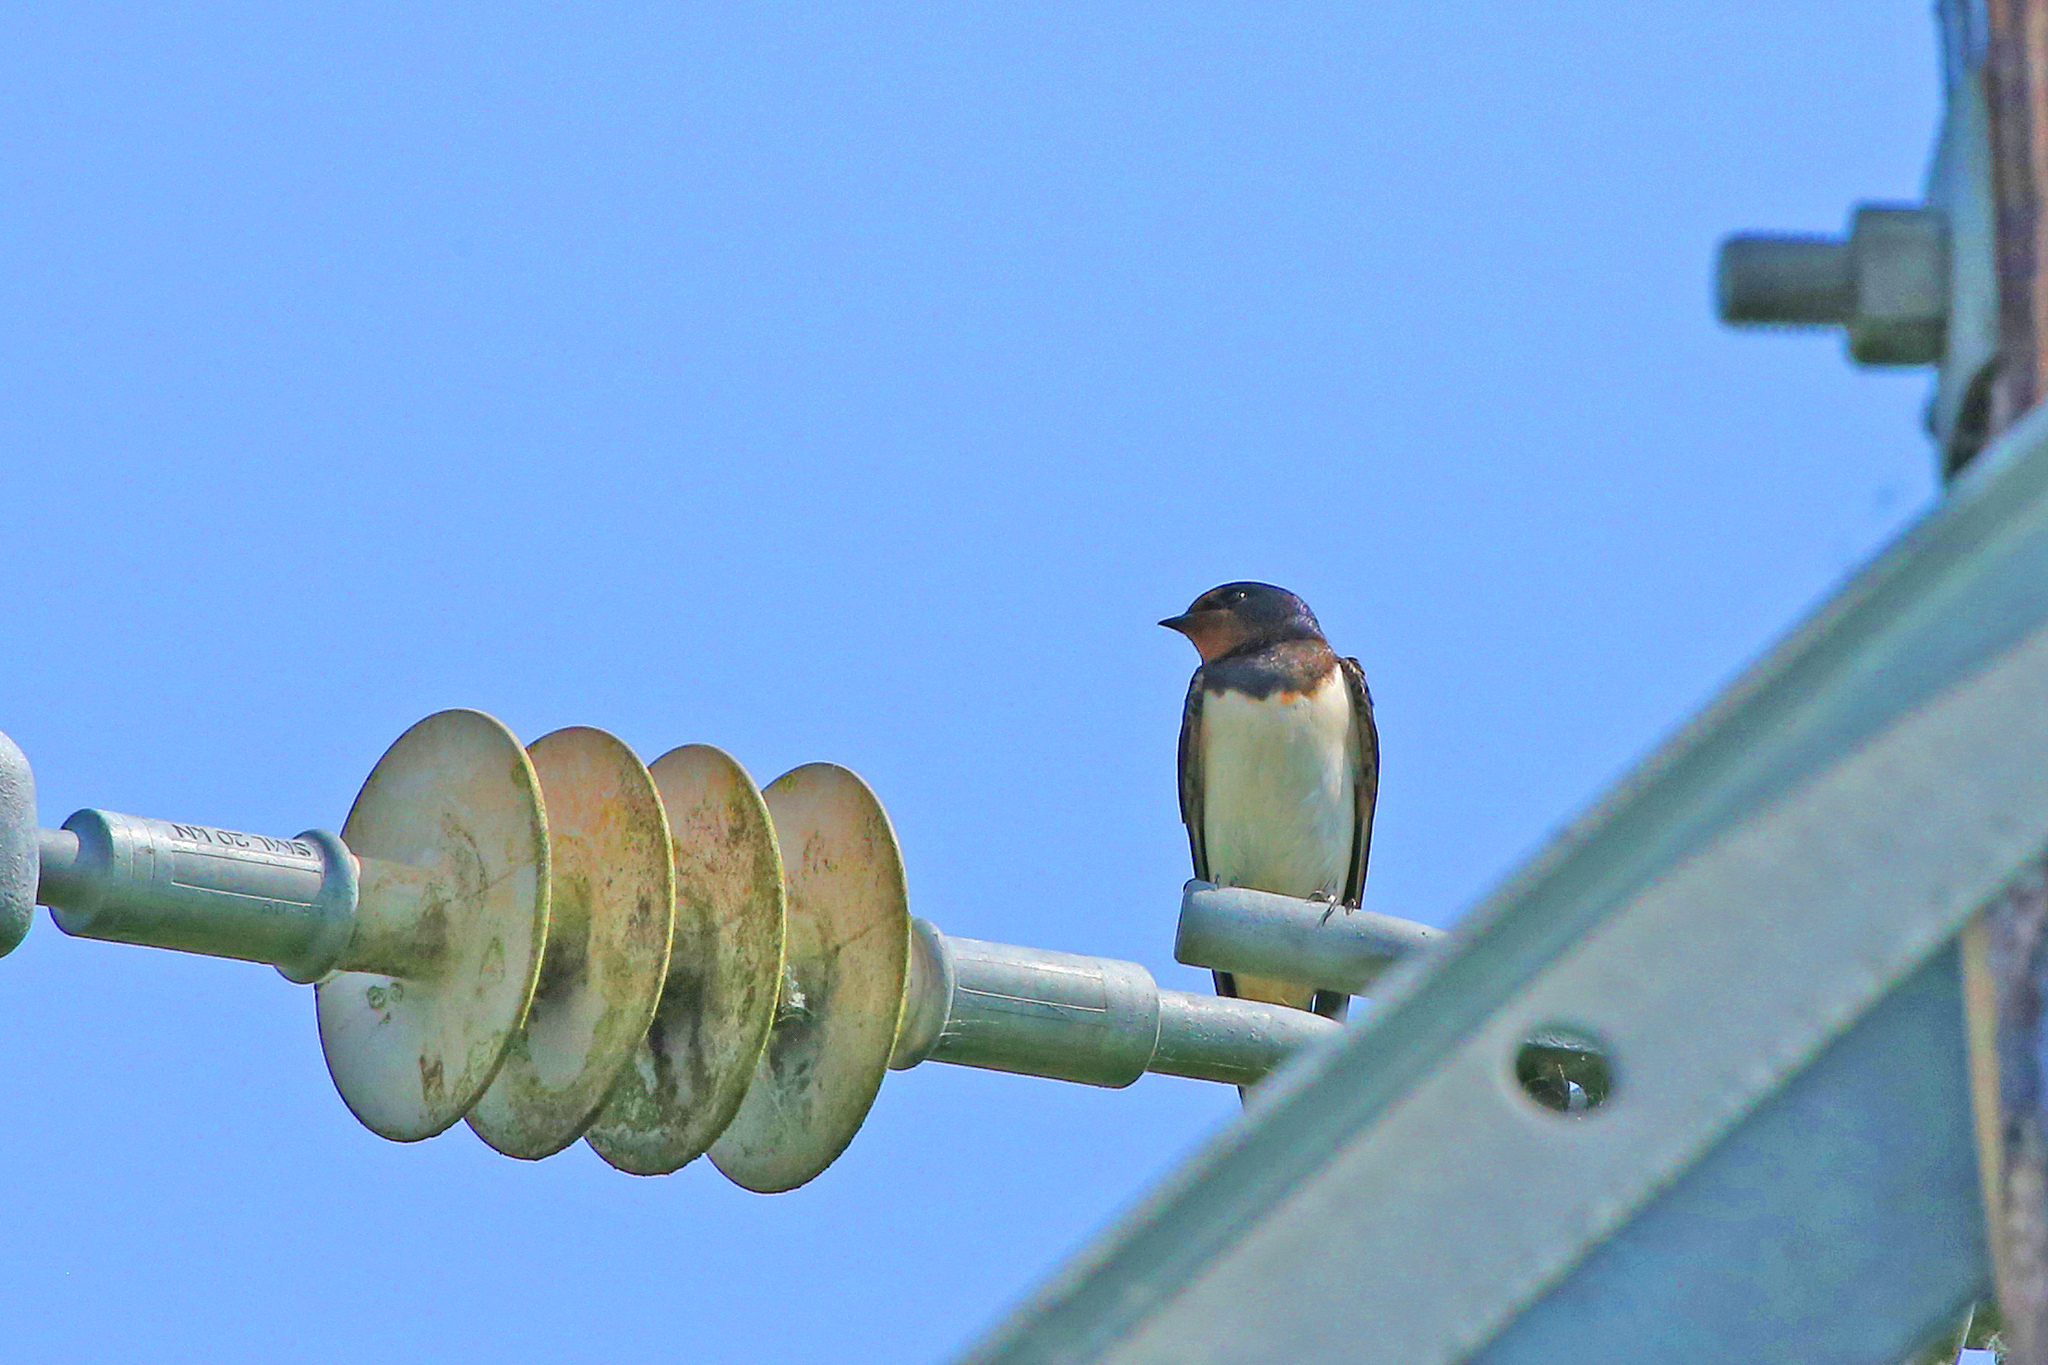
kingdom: Animalia
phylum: Chordata
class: Aves
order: Passeriformes
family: Hirundinidae
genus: Hirundo
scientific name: Hirundo rustica
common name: Barn swallow
